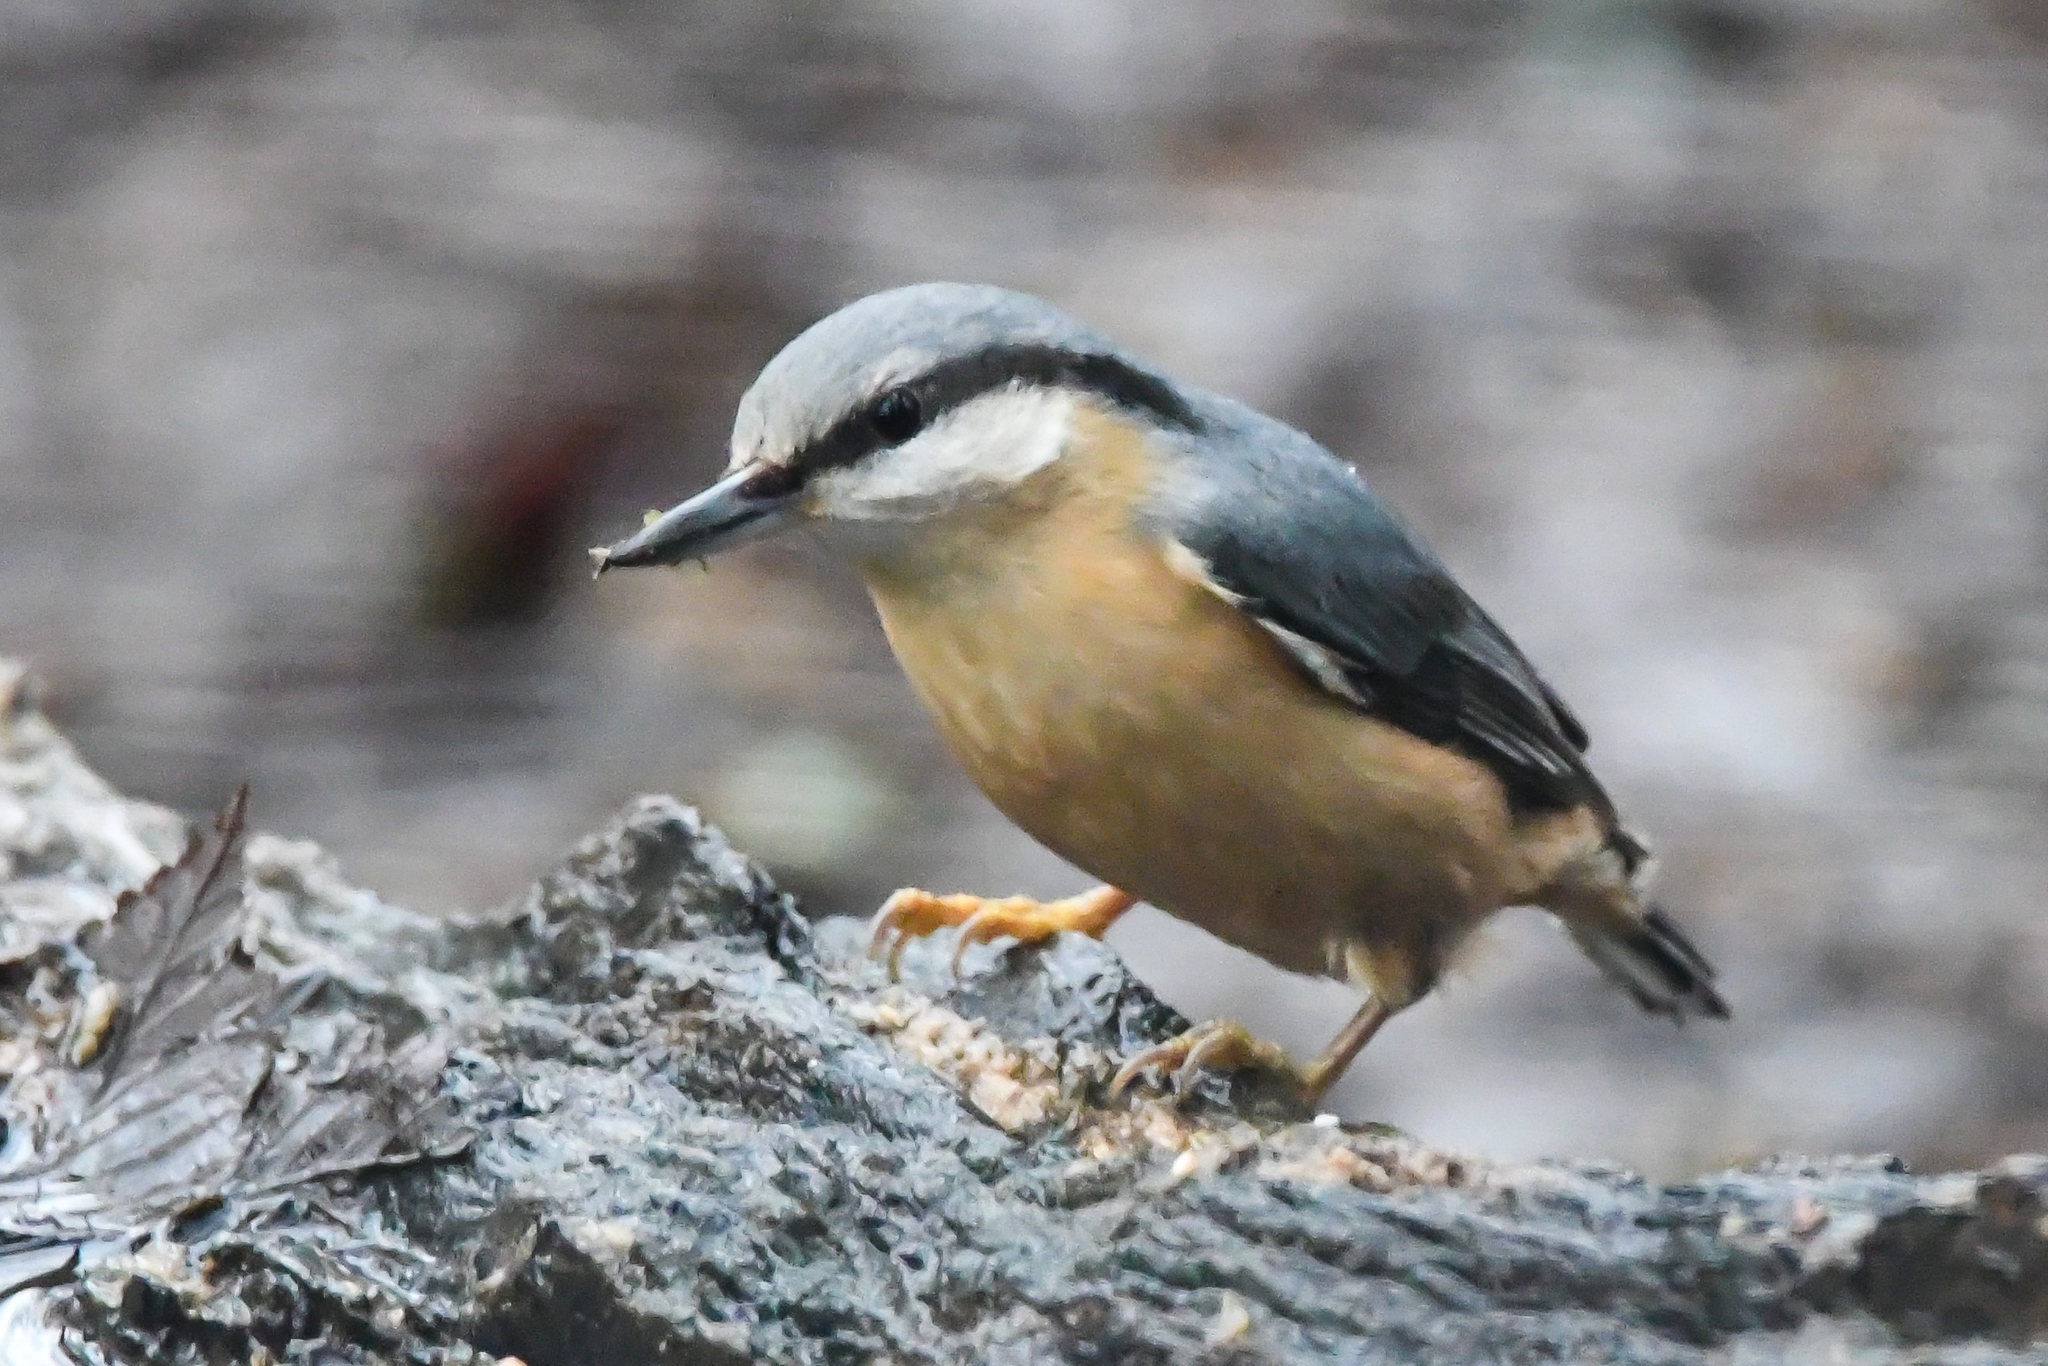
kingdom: Animalia
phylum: Chordata
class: Aves
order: Passeriformes
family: Sittidae
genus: Sitta
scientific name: Sitta europaea
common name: Eurasian nuthatch
